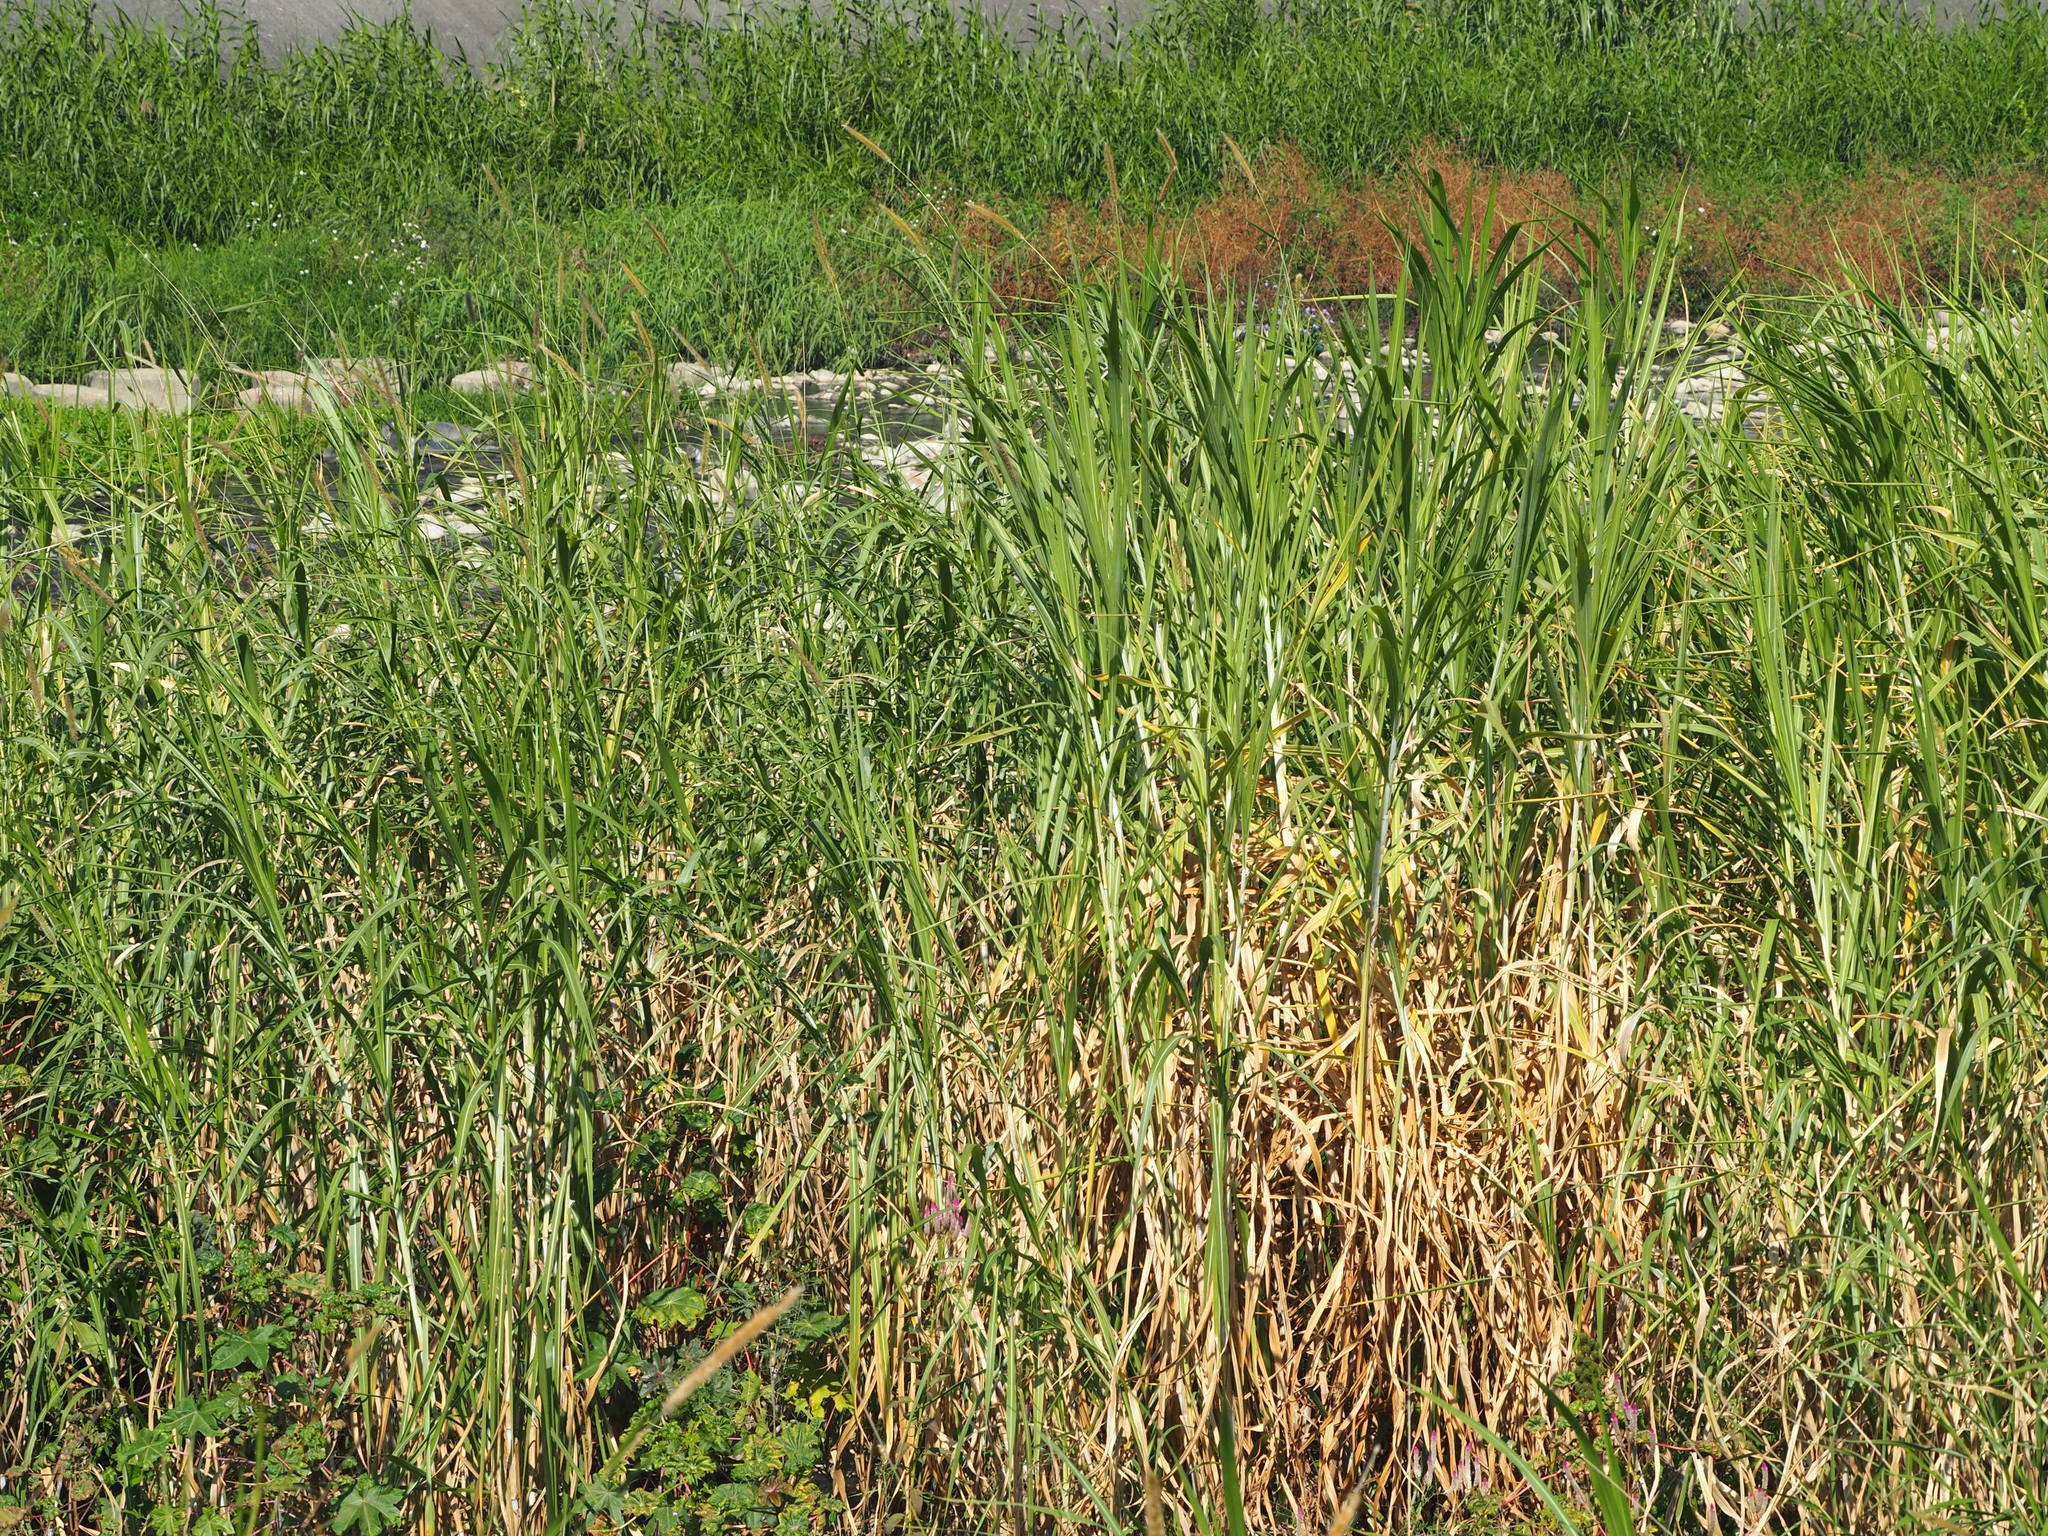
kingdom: Plantae
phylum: Tracheophyta
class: Liliopsida
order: Poales
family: Poaceae
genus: Cenchrus
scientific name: Cenchrus purpureus
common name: Elephant grass
